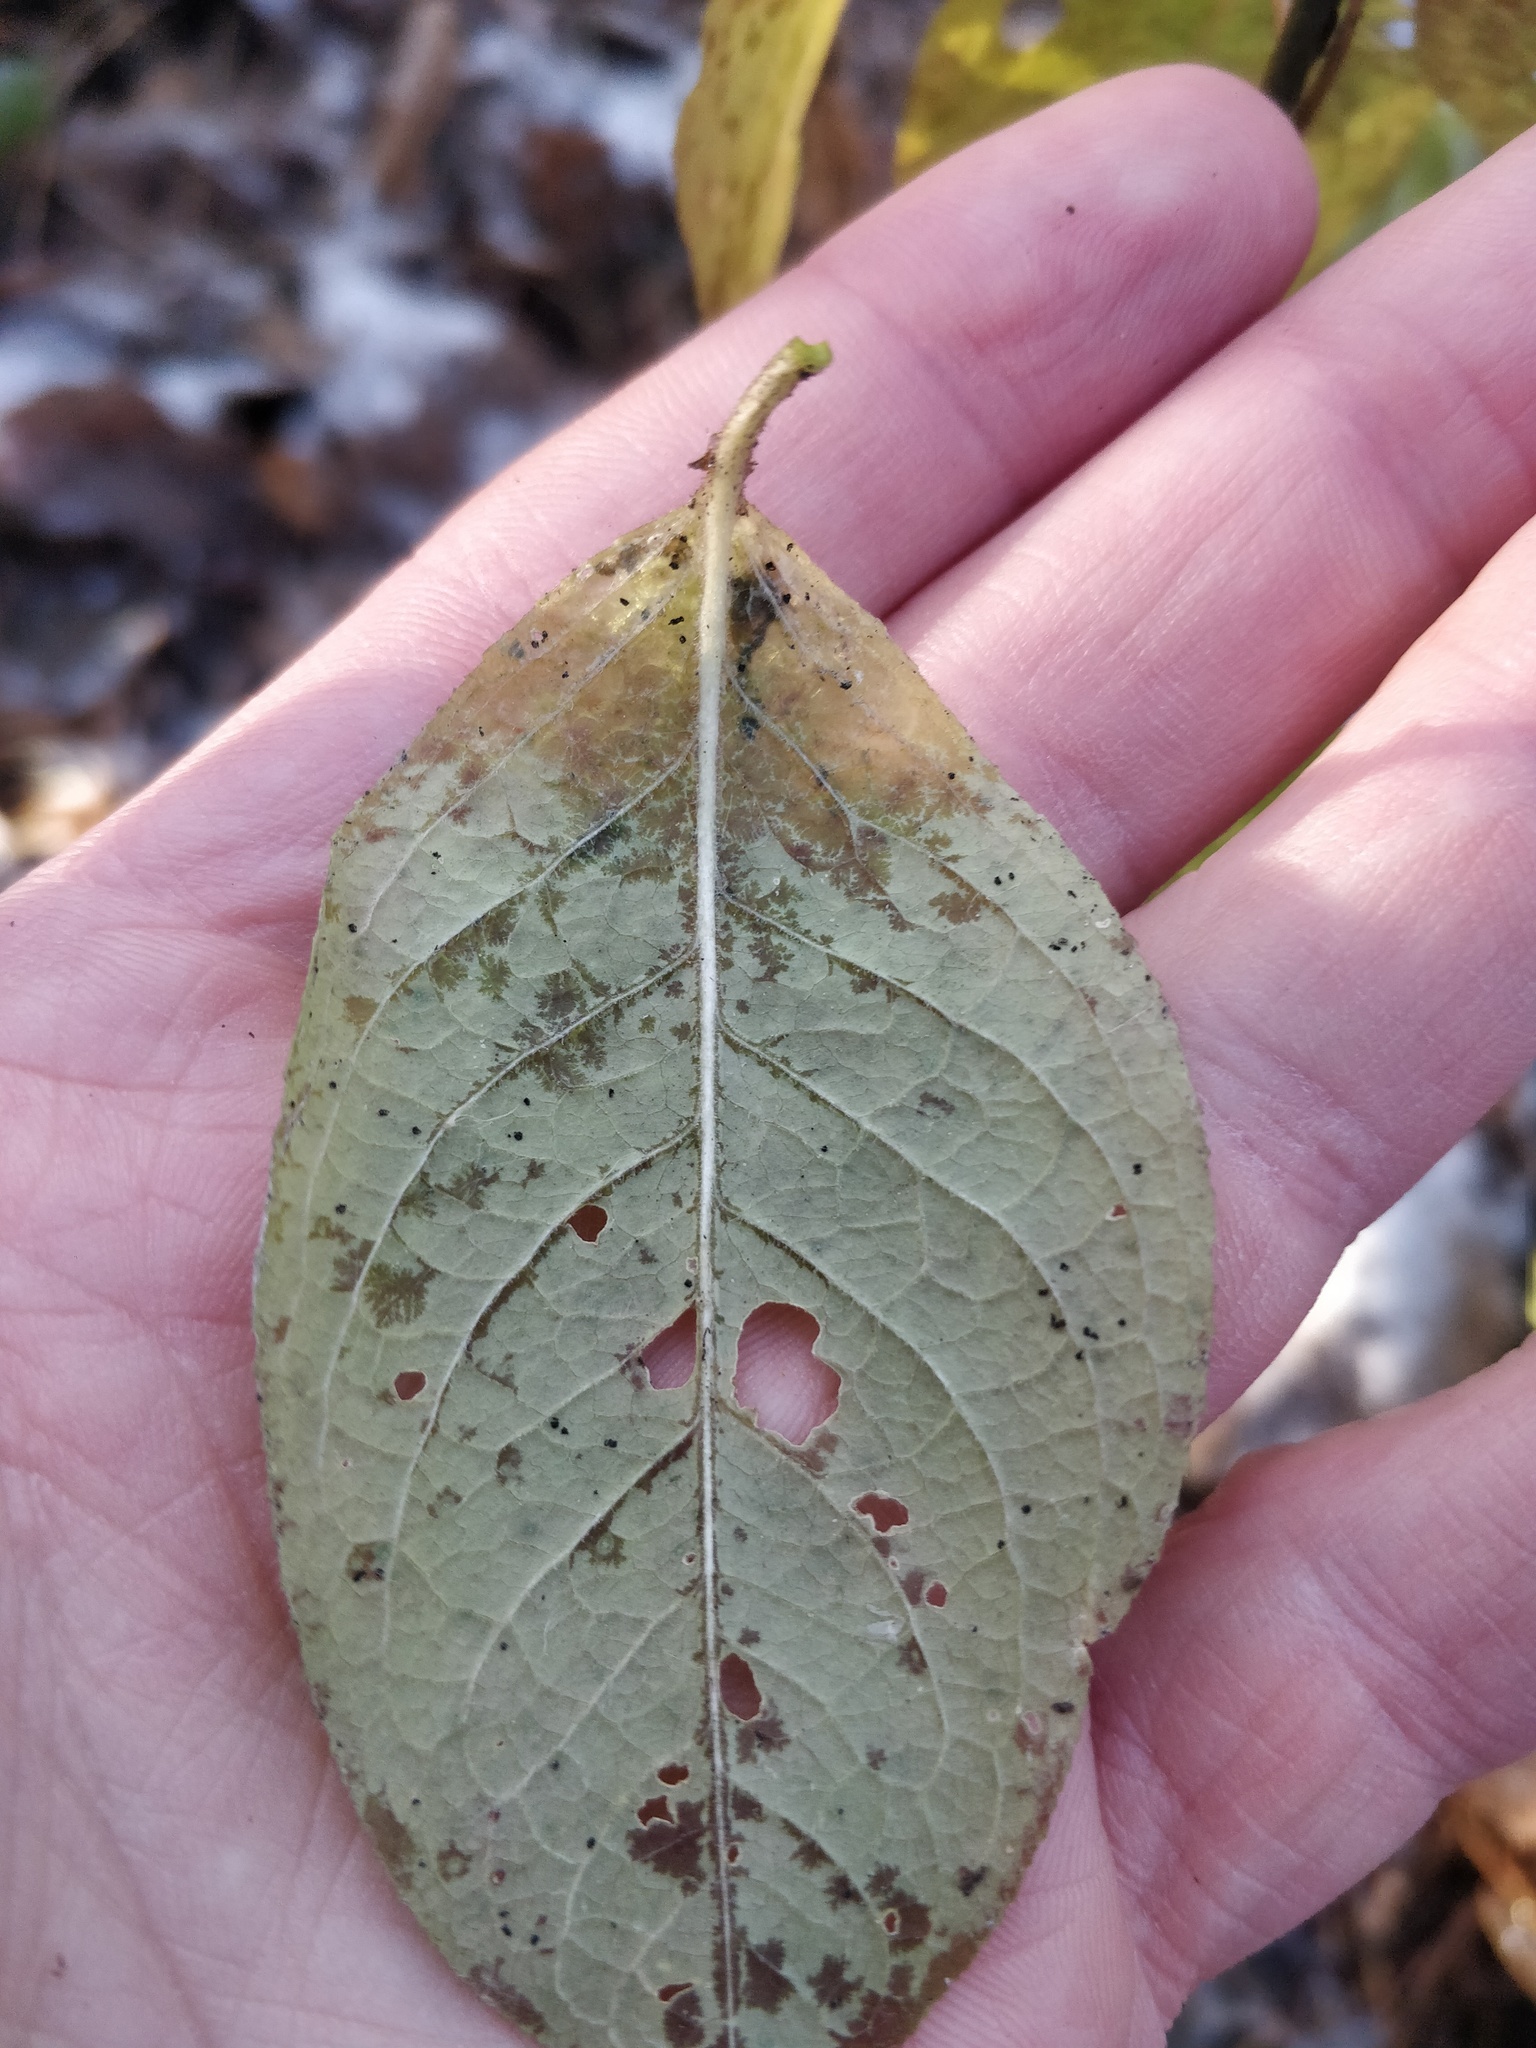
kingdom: Plantae
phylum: Tracheophyta
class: Magnoliopsida
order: Rosales
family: Rosaceae
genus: Prunus
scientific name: Prunus padus
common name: Bird cherry
